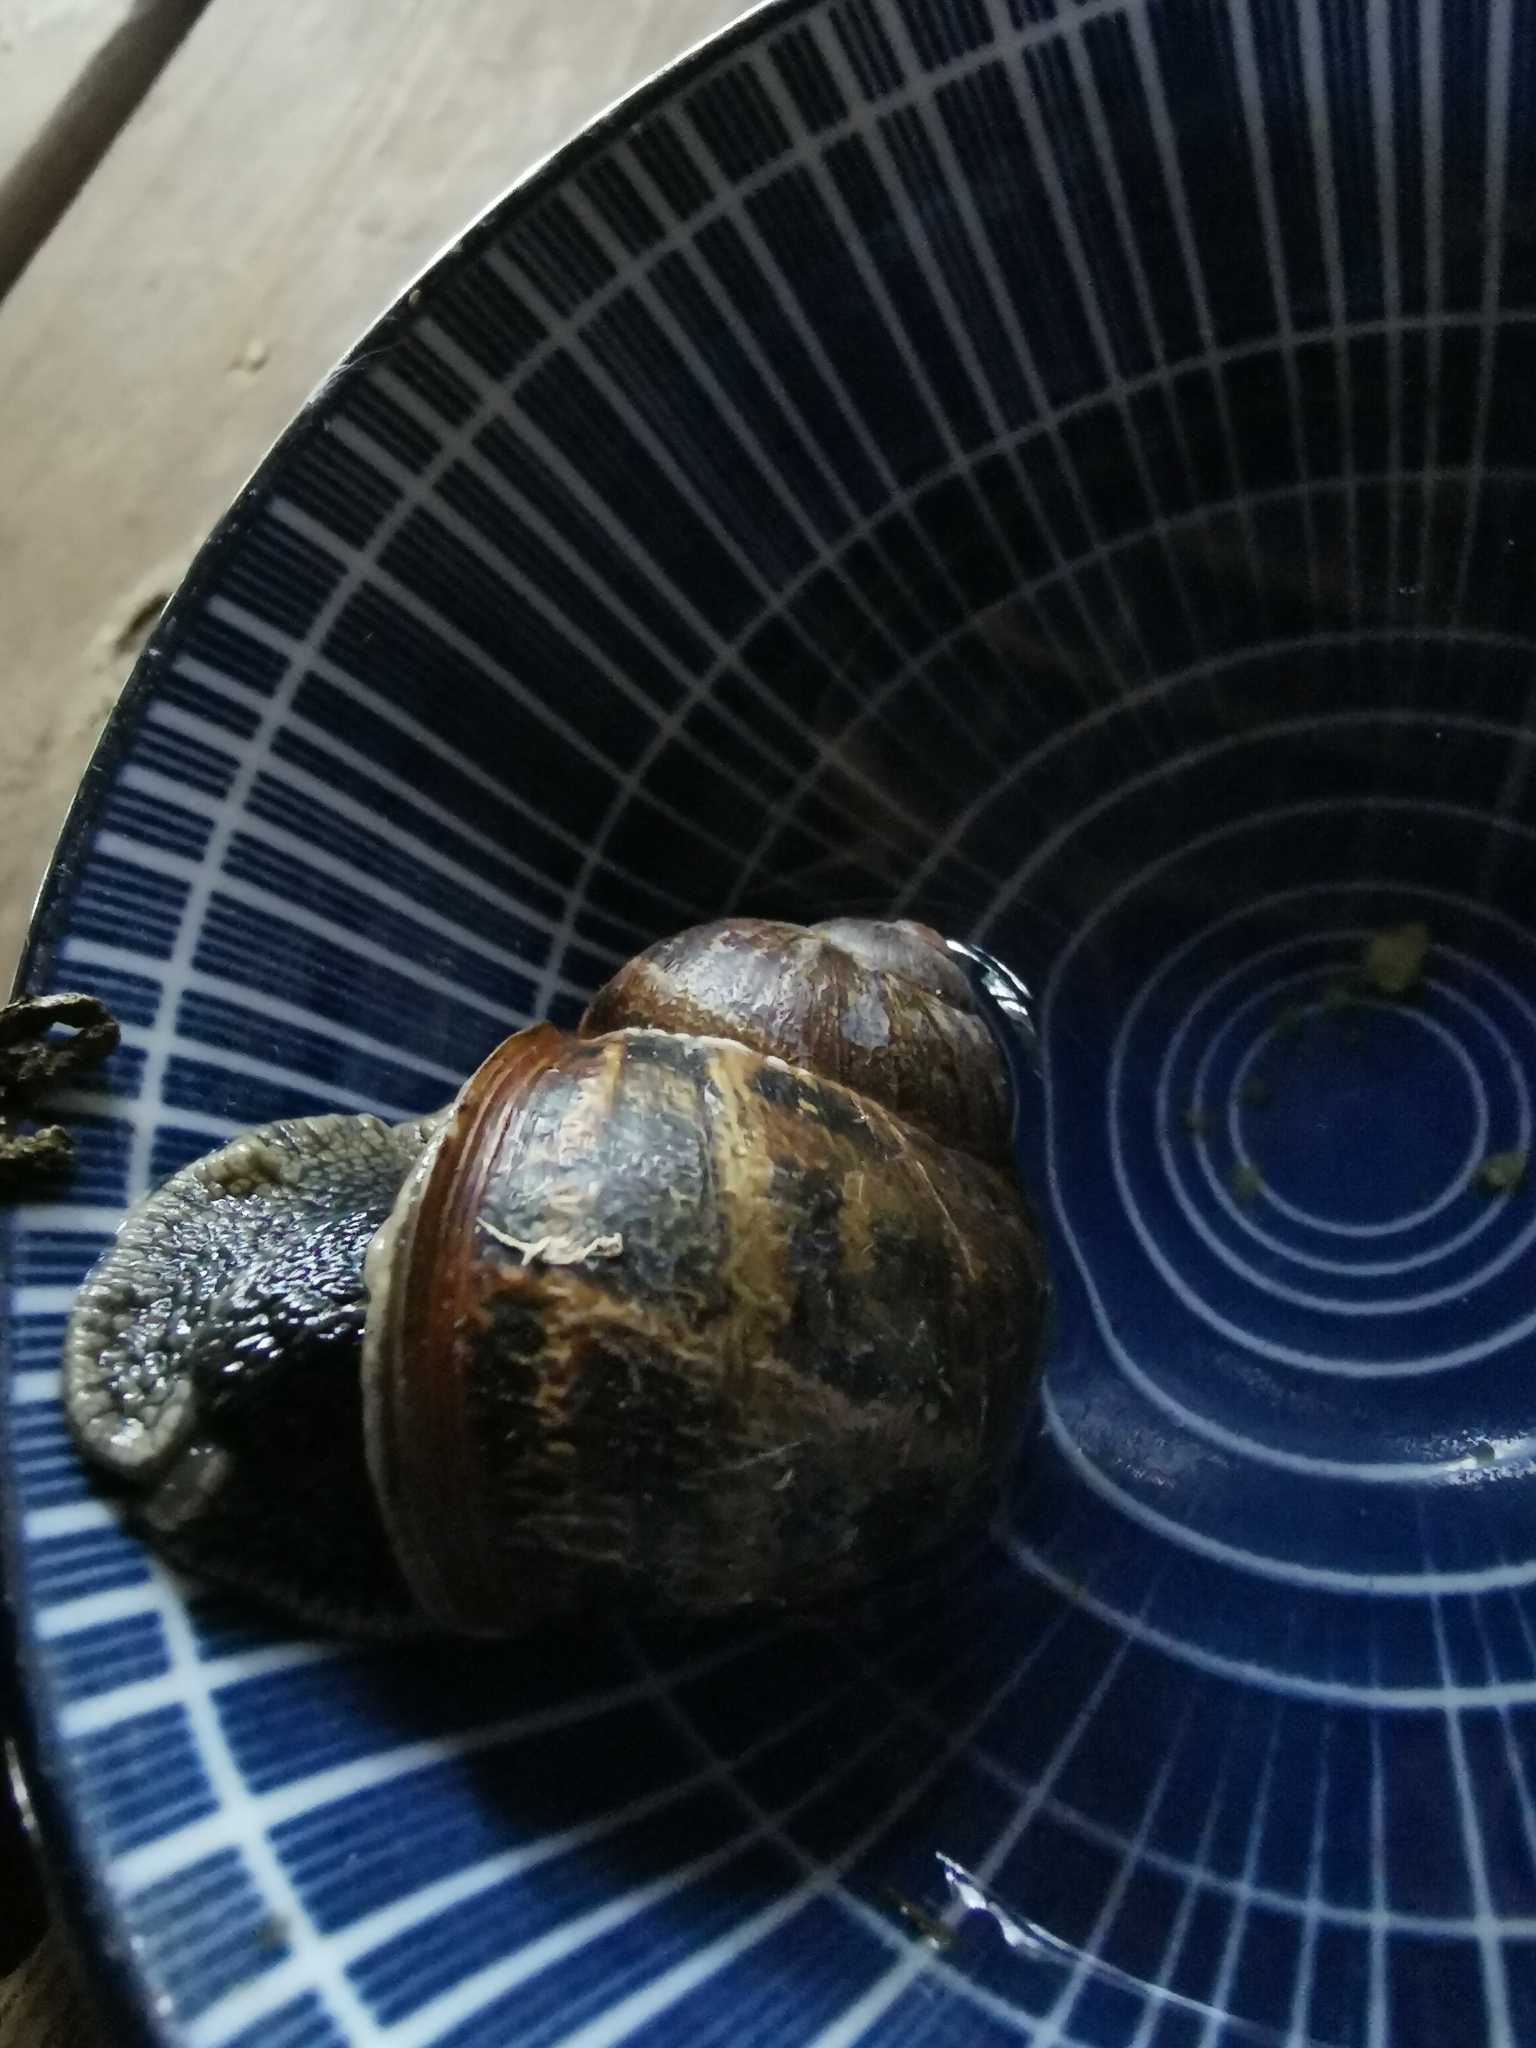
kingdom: Animalia
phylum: Mollusca
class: Gastropoda
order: Stylommatophora
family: Helicidae
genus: Cornu
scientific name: Cornu aspersum
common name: Brown garden snail
